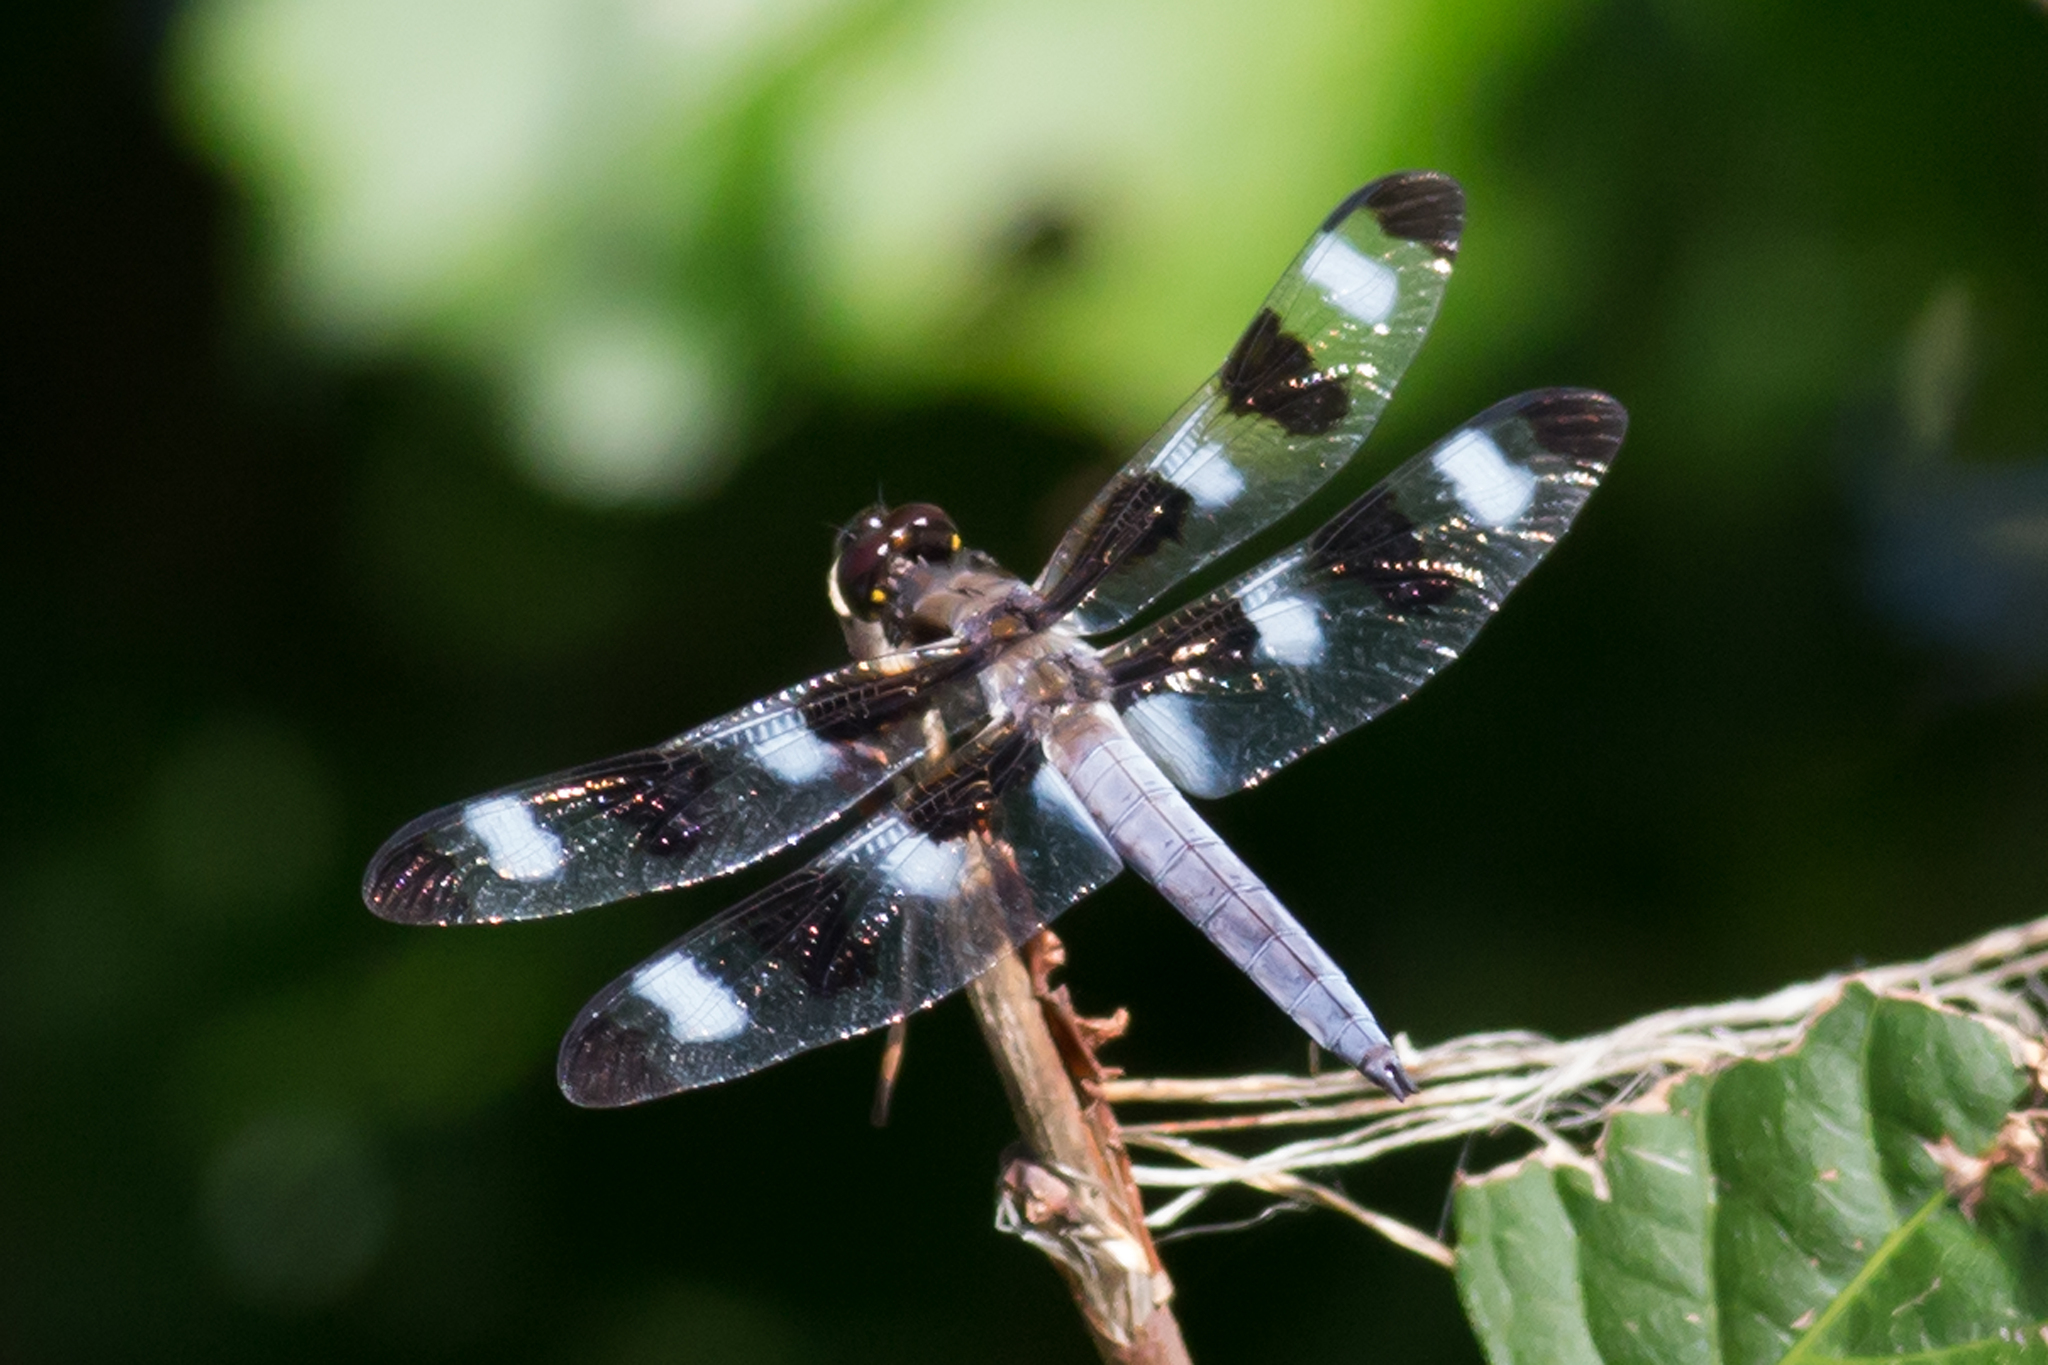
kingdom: Animalia
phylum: Arthropoda
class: Insecta
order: Odonata
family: Libellulidae
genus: Libellula
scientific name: Libellula pulchella
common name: Twelve-spotted skimmer
